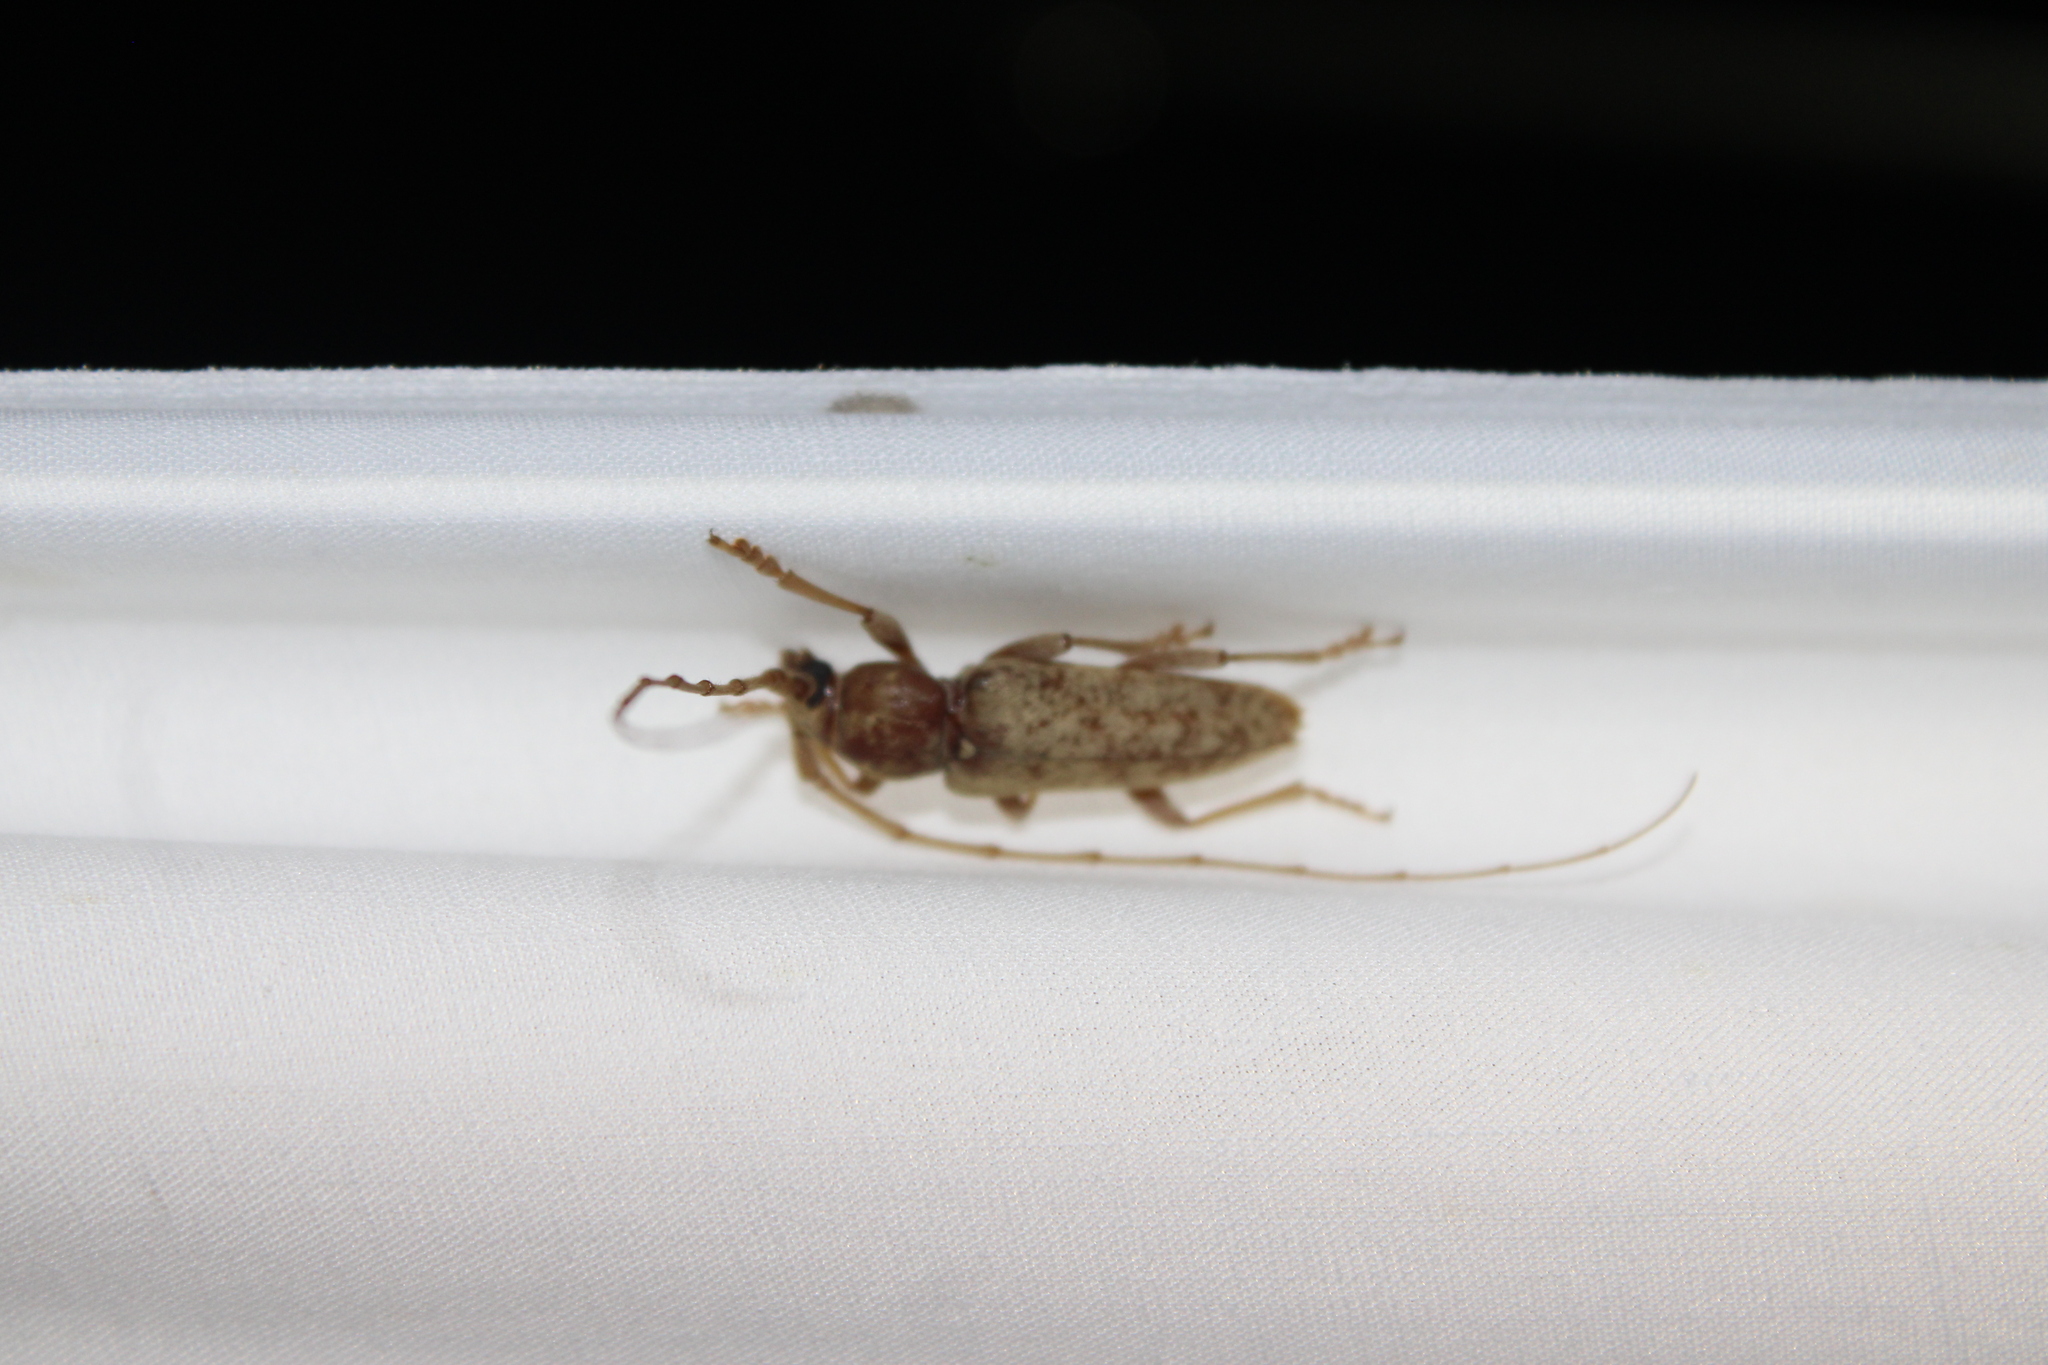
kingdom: Animalia
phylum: Arthropoda
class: Insecta
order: Coleoptera
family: Cerambycidae
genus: Enaphalodes
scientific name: Enaphalodes rufulus
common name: Red oak borer
